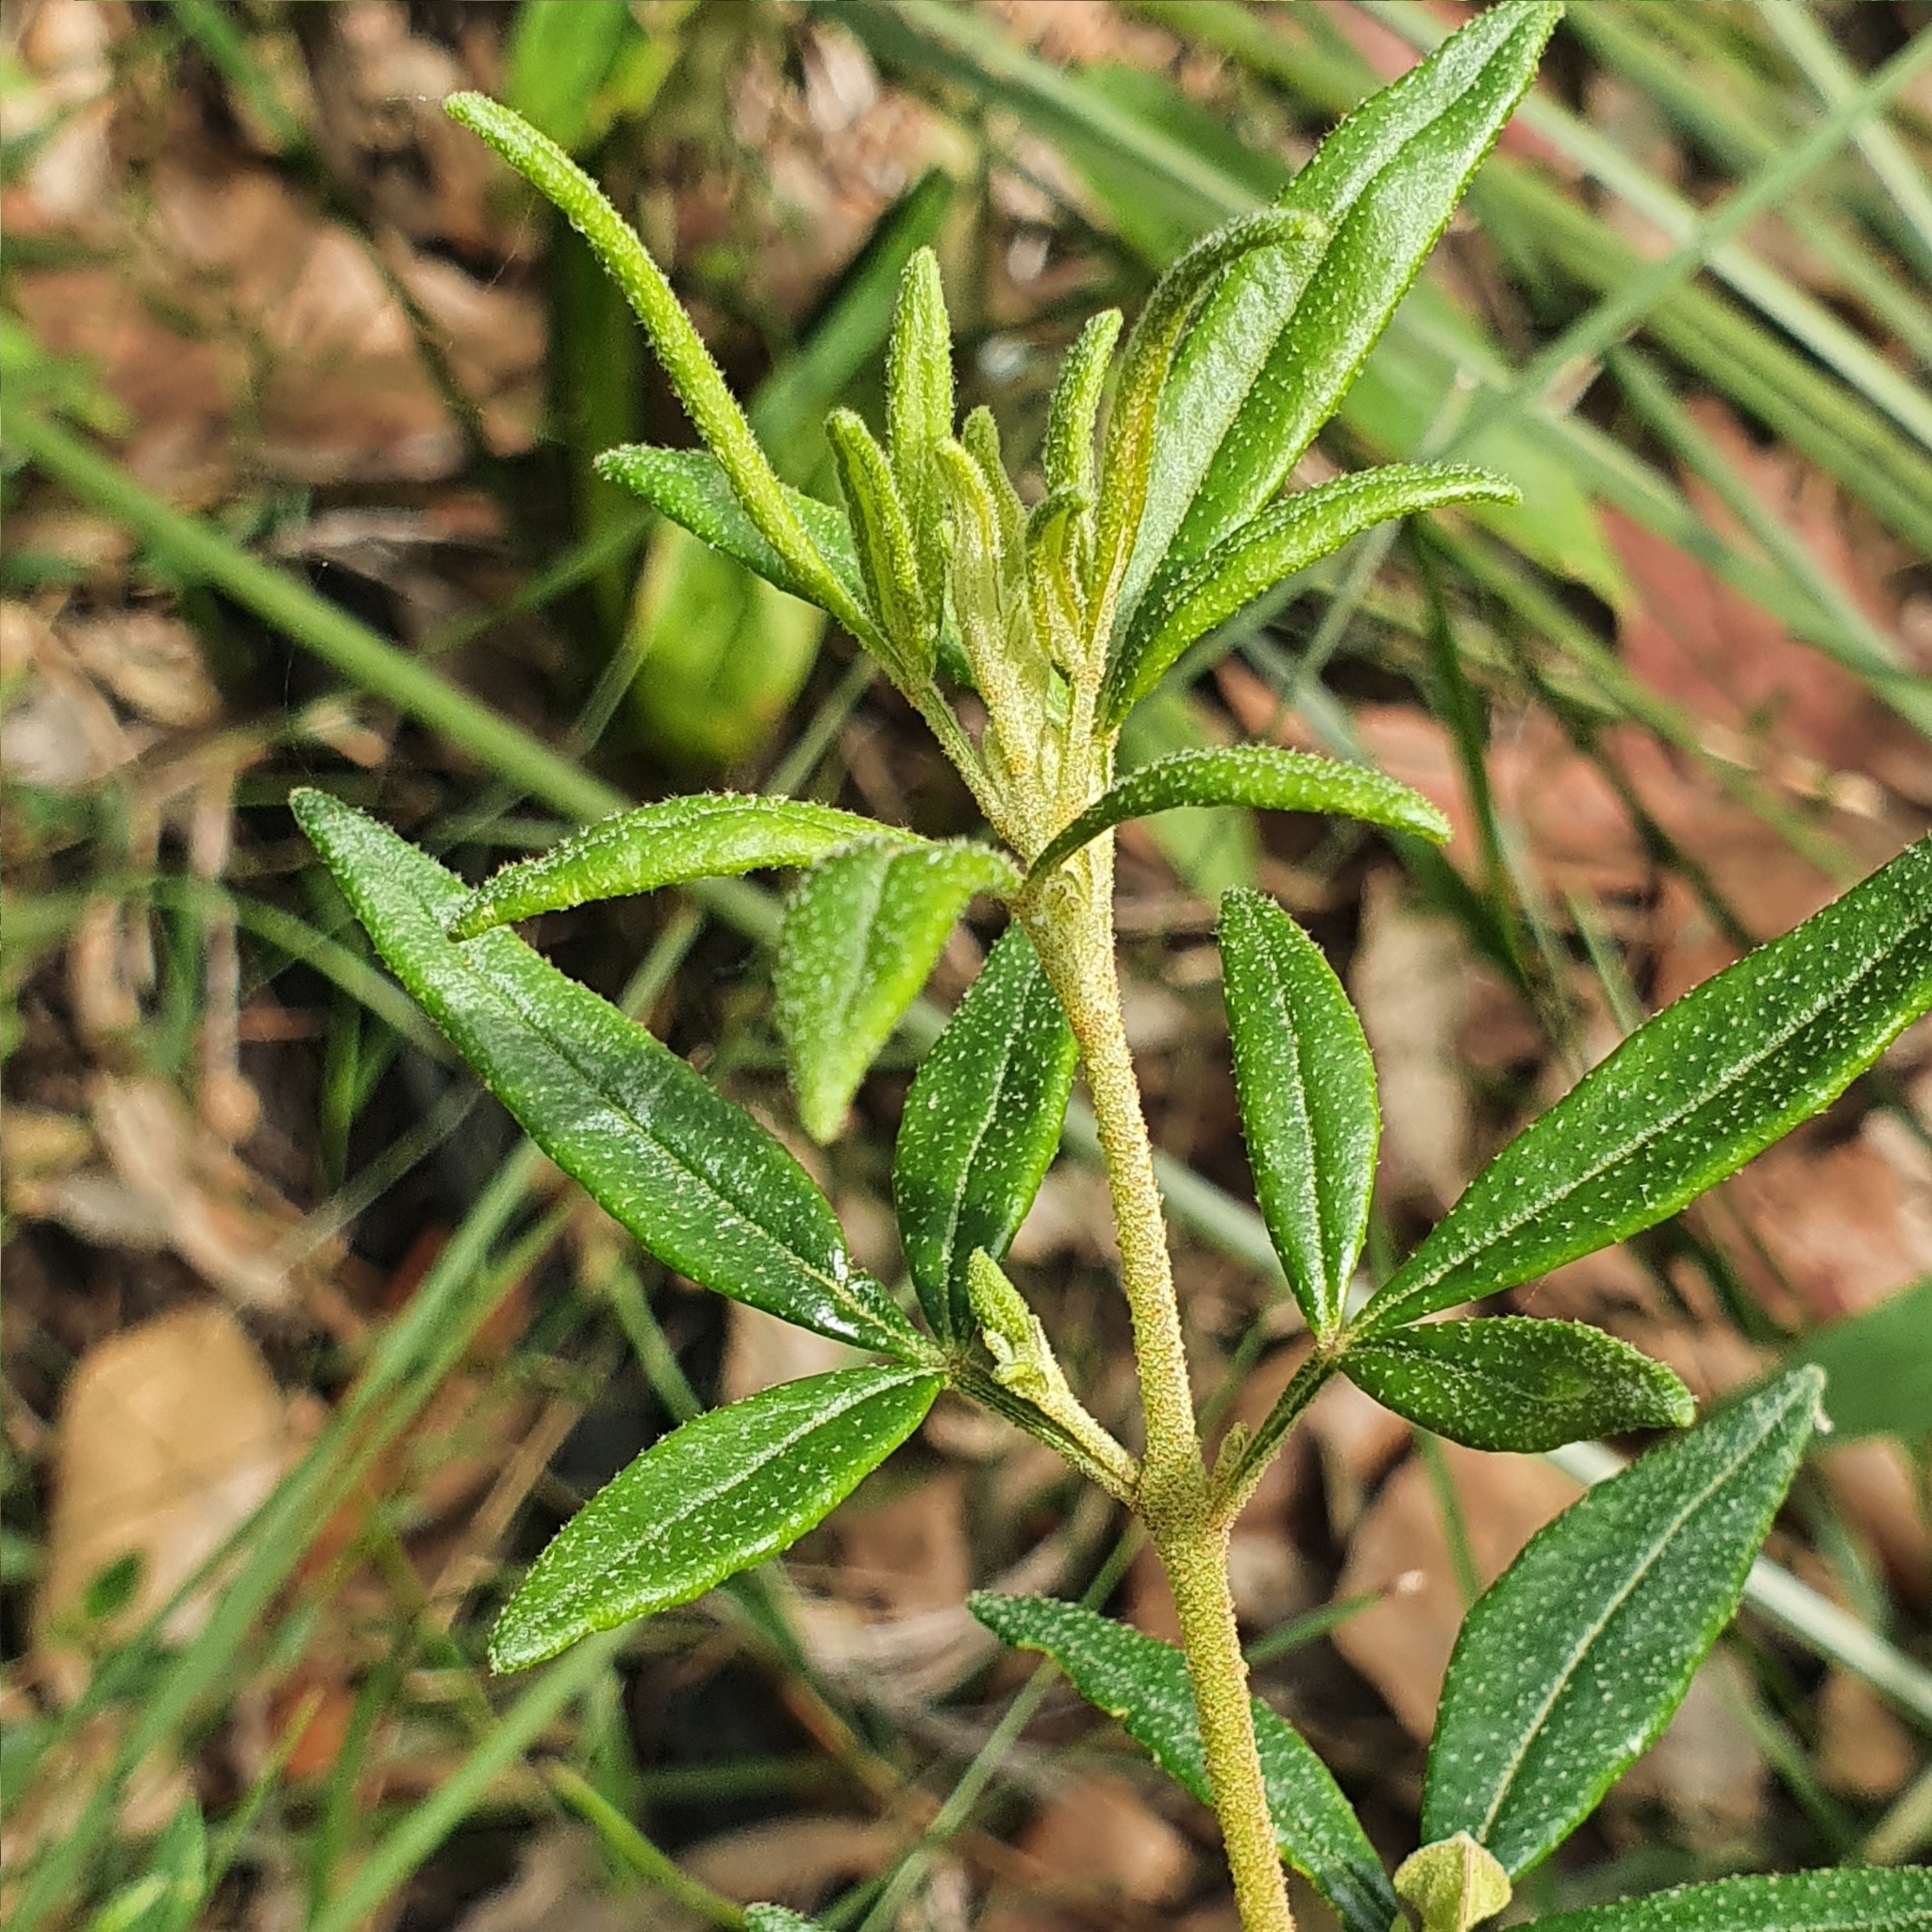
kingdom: Plantae
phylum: Tracheophyta
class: Magnoliopsida
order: Sapindales
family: Rutaceae
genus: Boronia
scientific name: Boronia ledifolia
